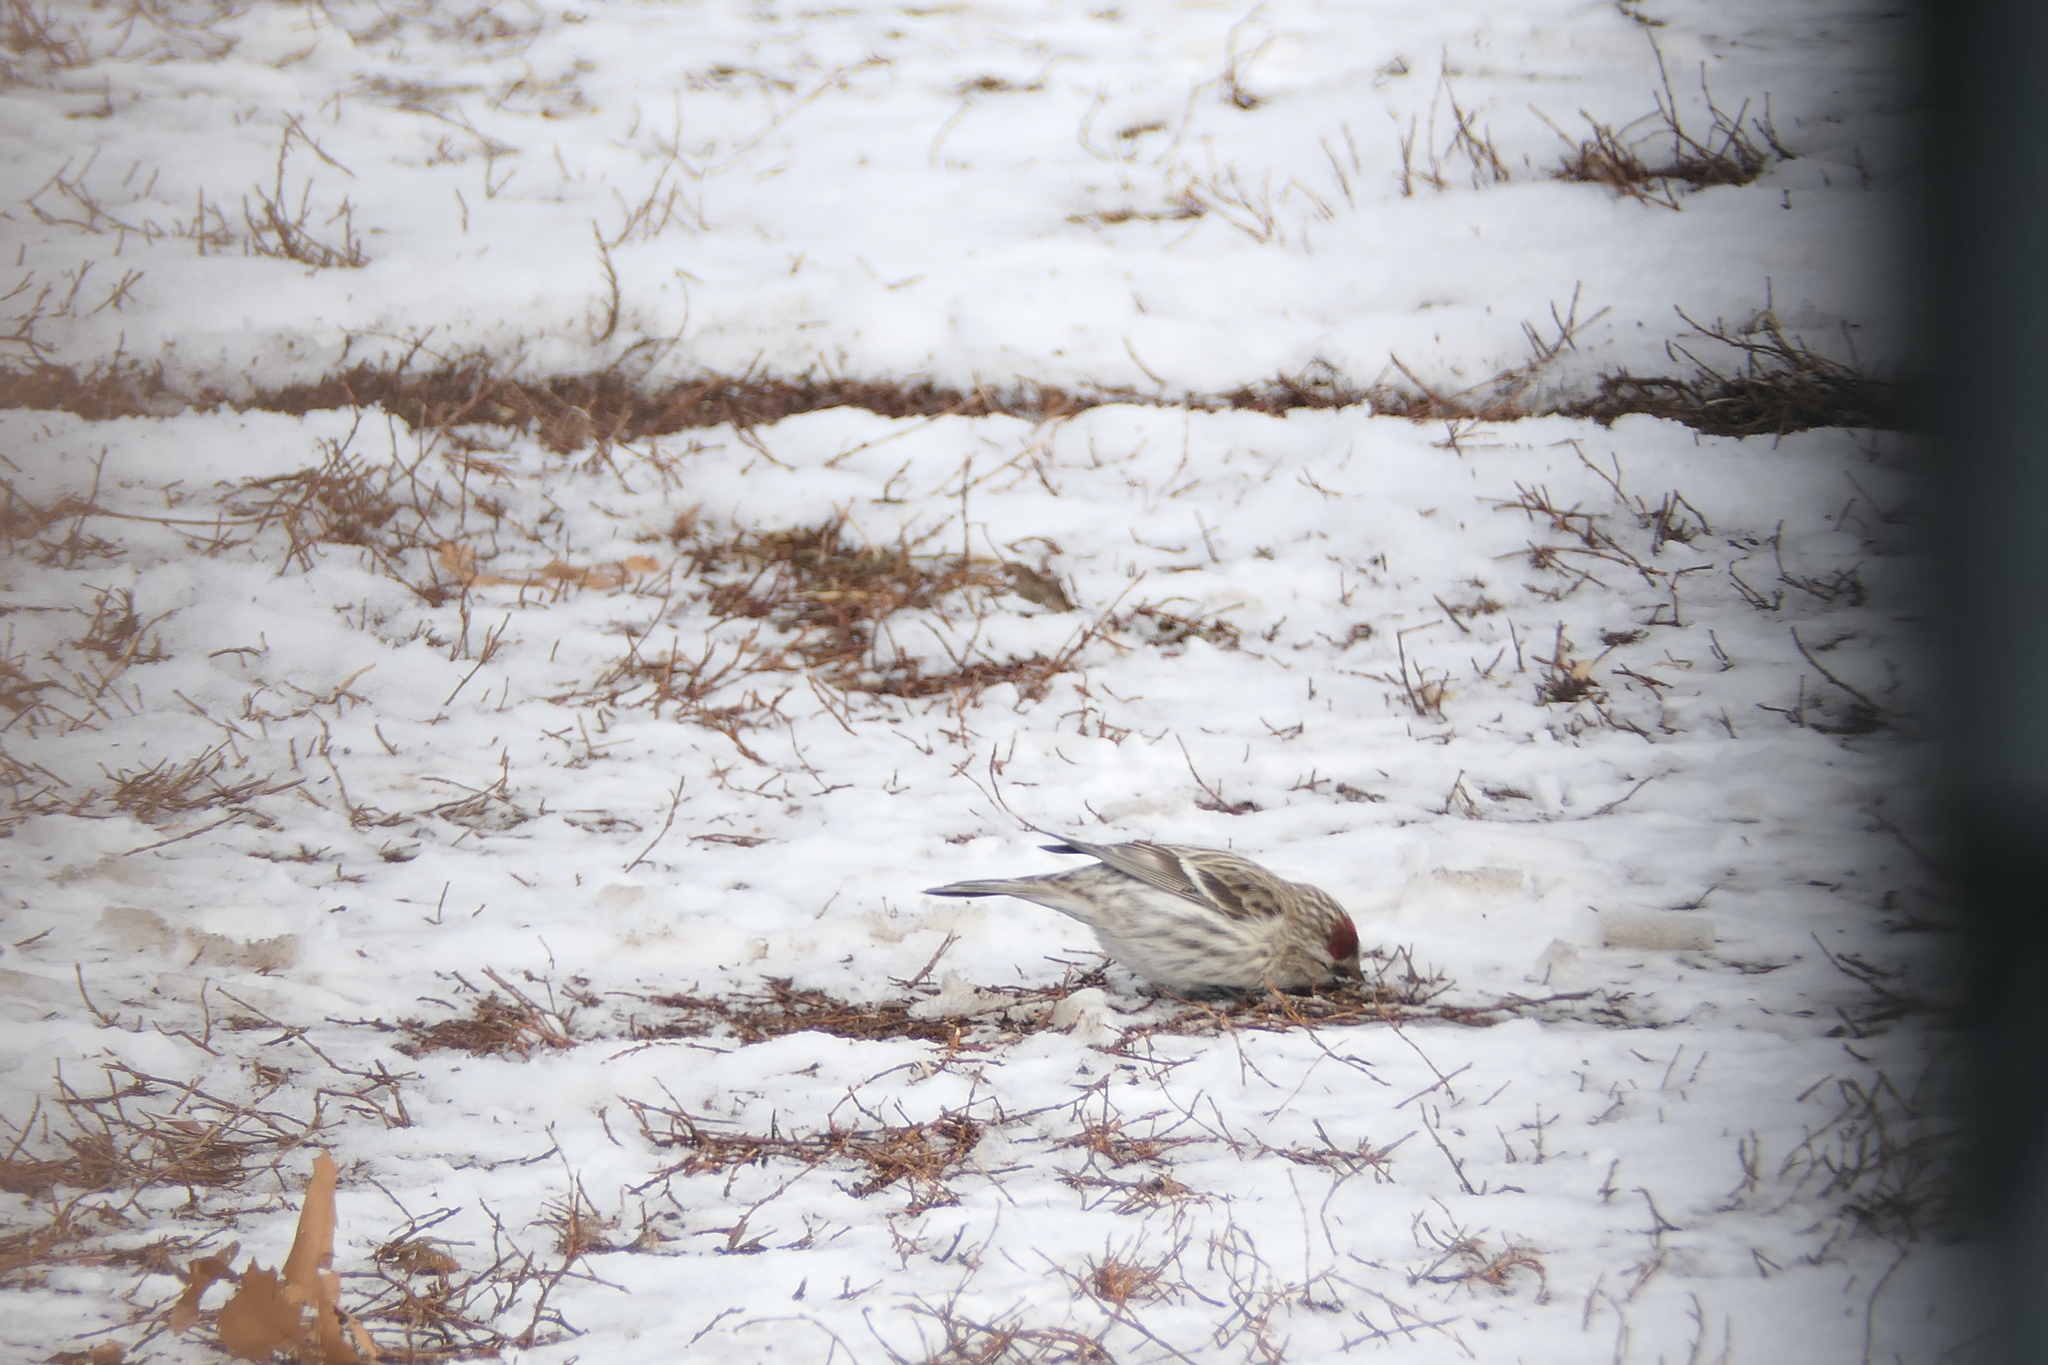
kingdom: Animalia
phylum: Chordata
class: Aves
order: Passeriformes
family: Fringillidae
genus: Acanthis
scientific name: Acanthis hornemanni
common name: Arctic redpoll
